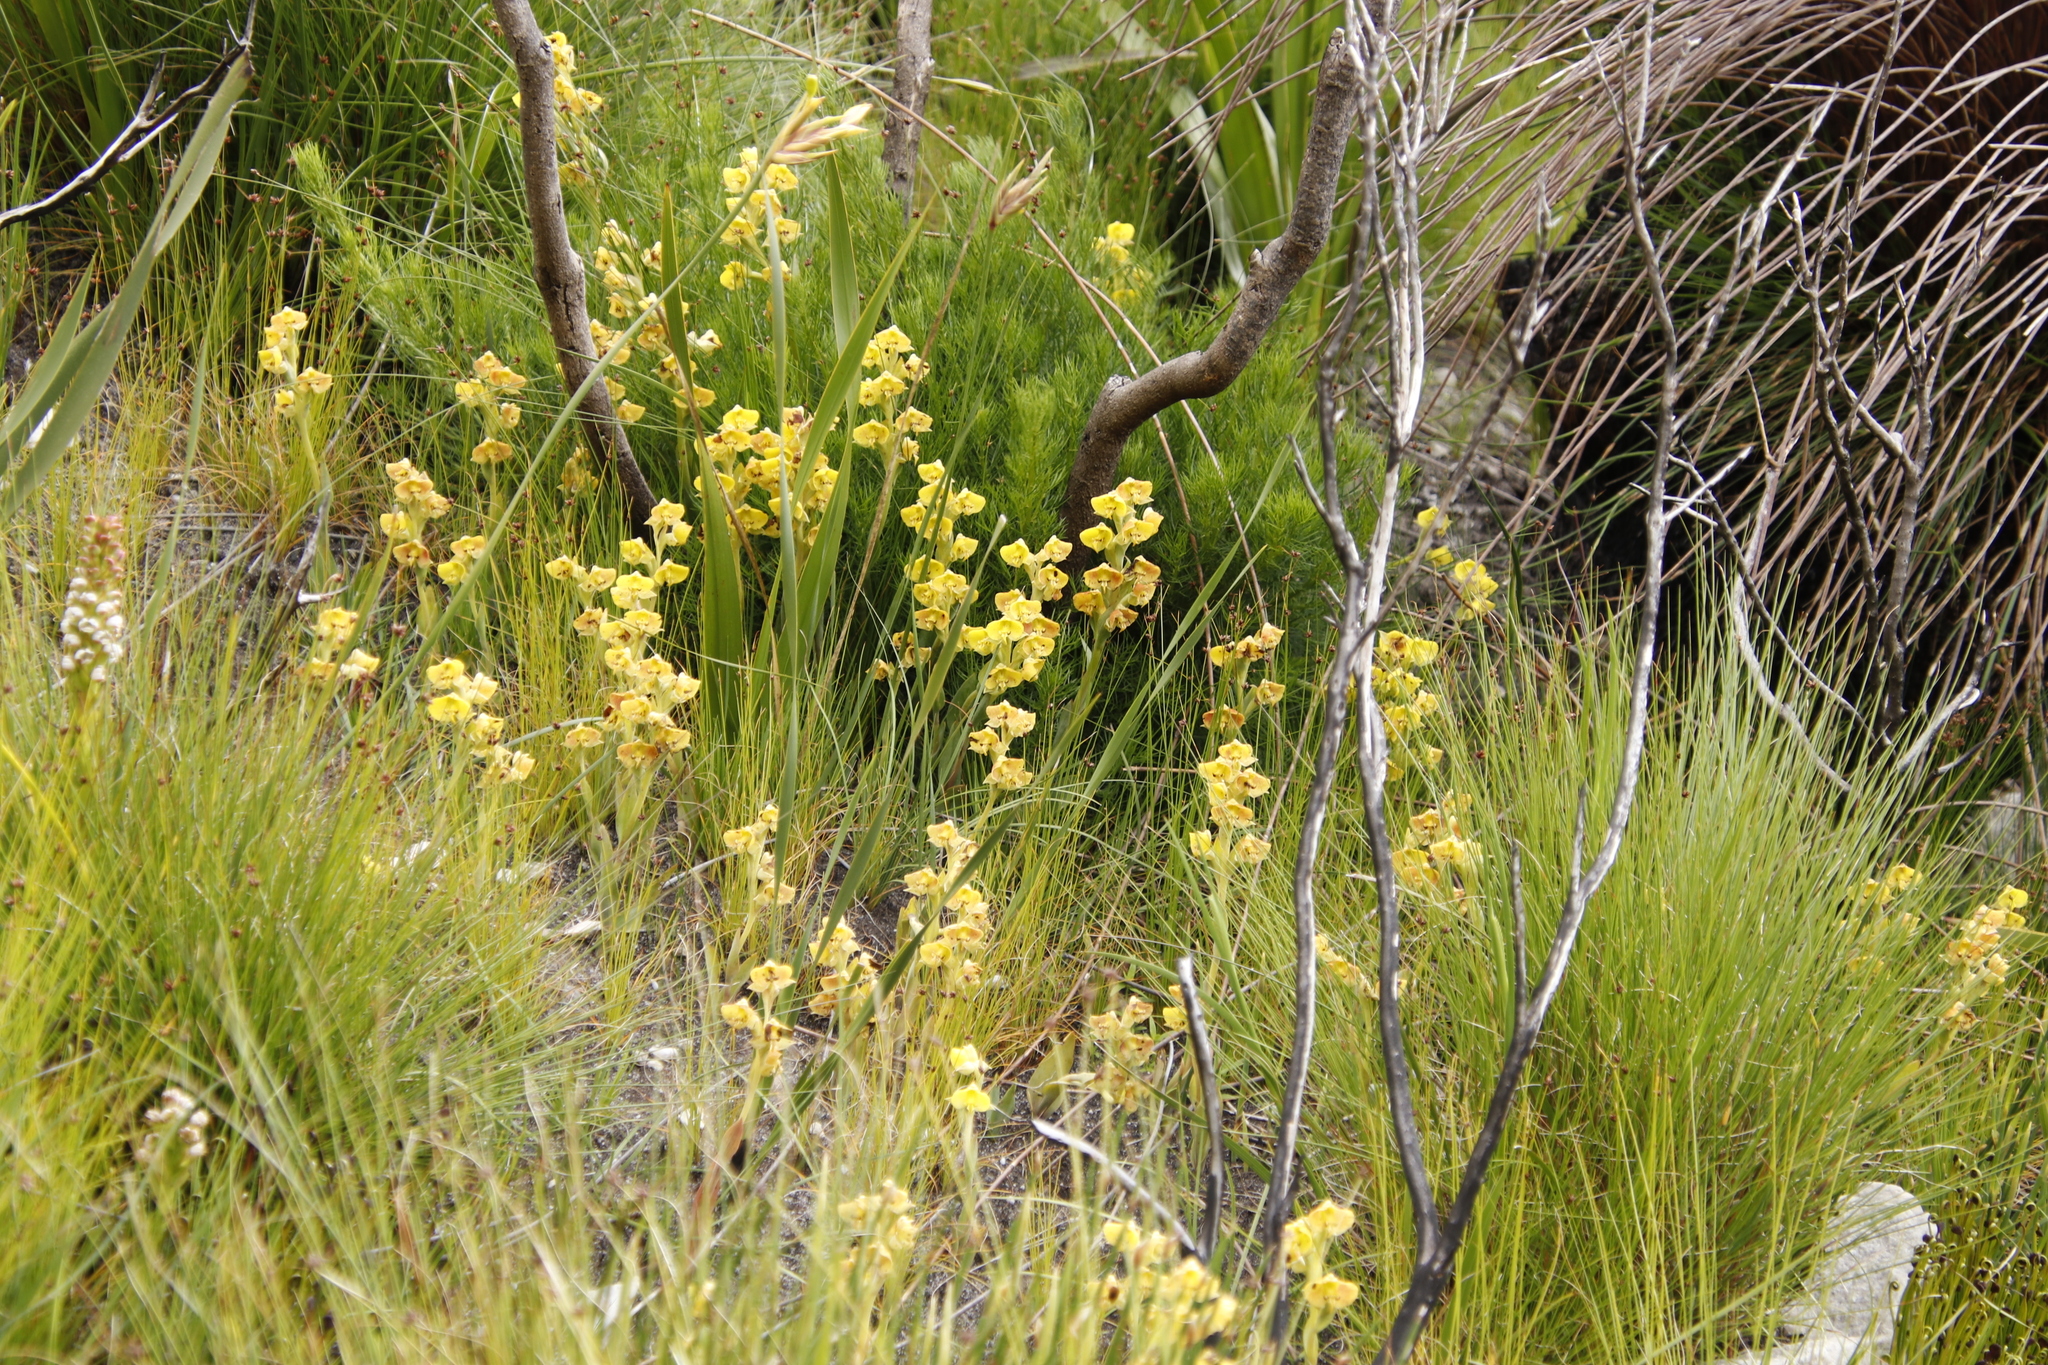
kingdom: Plantae
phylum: Tracheophyta
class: Liliopsida
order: Asparagales
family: Orchidaceae
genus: Pterygodium
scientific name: Pterygodium acutifolium
